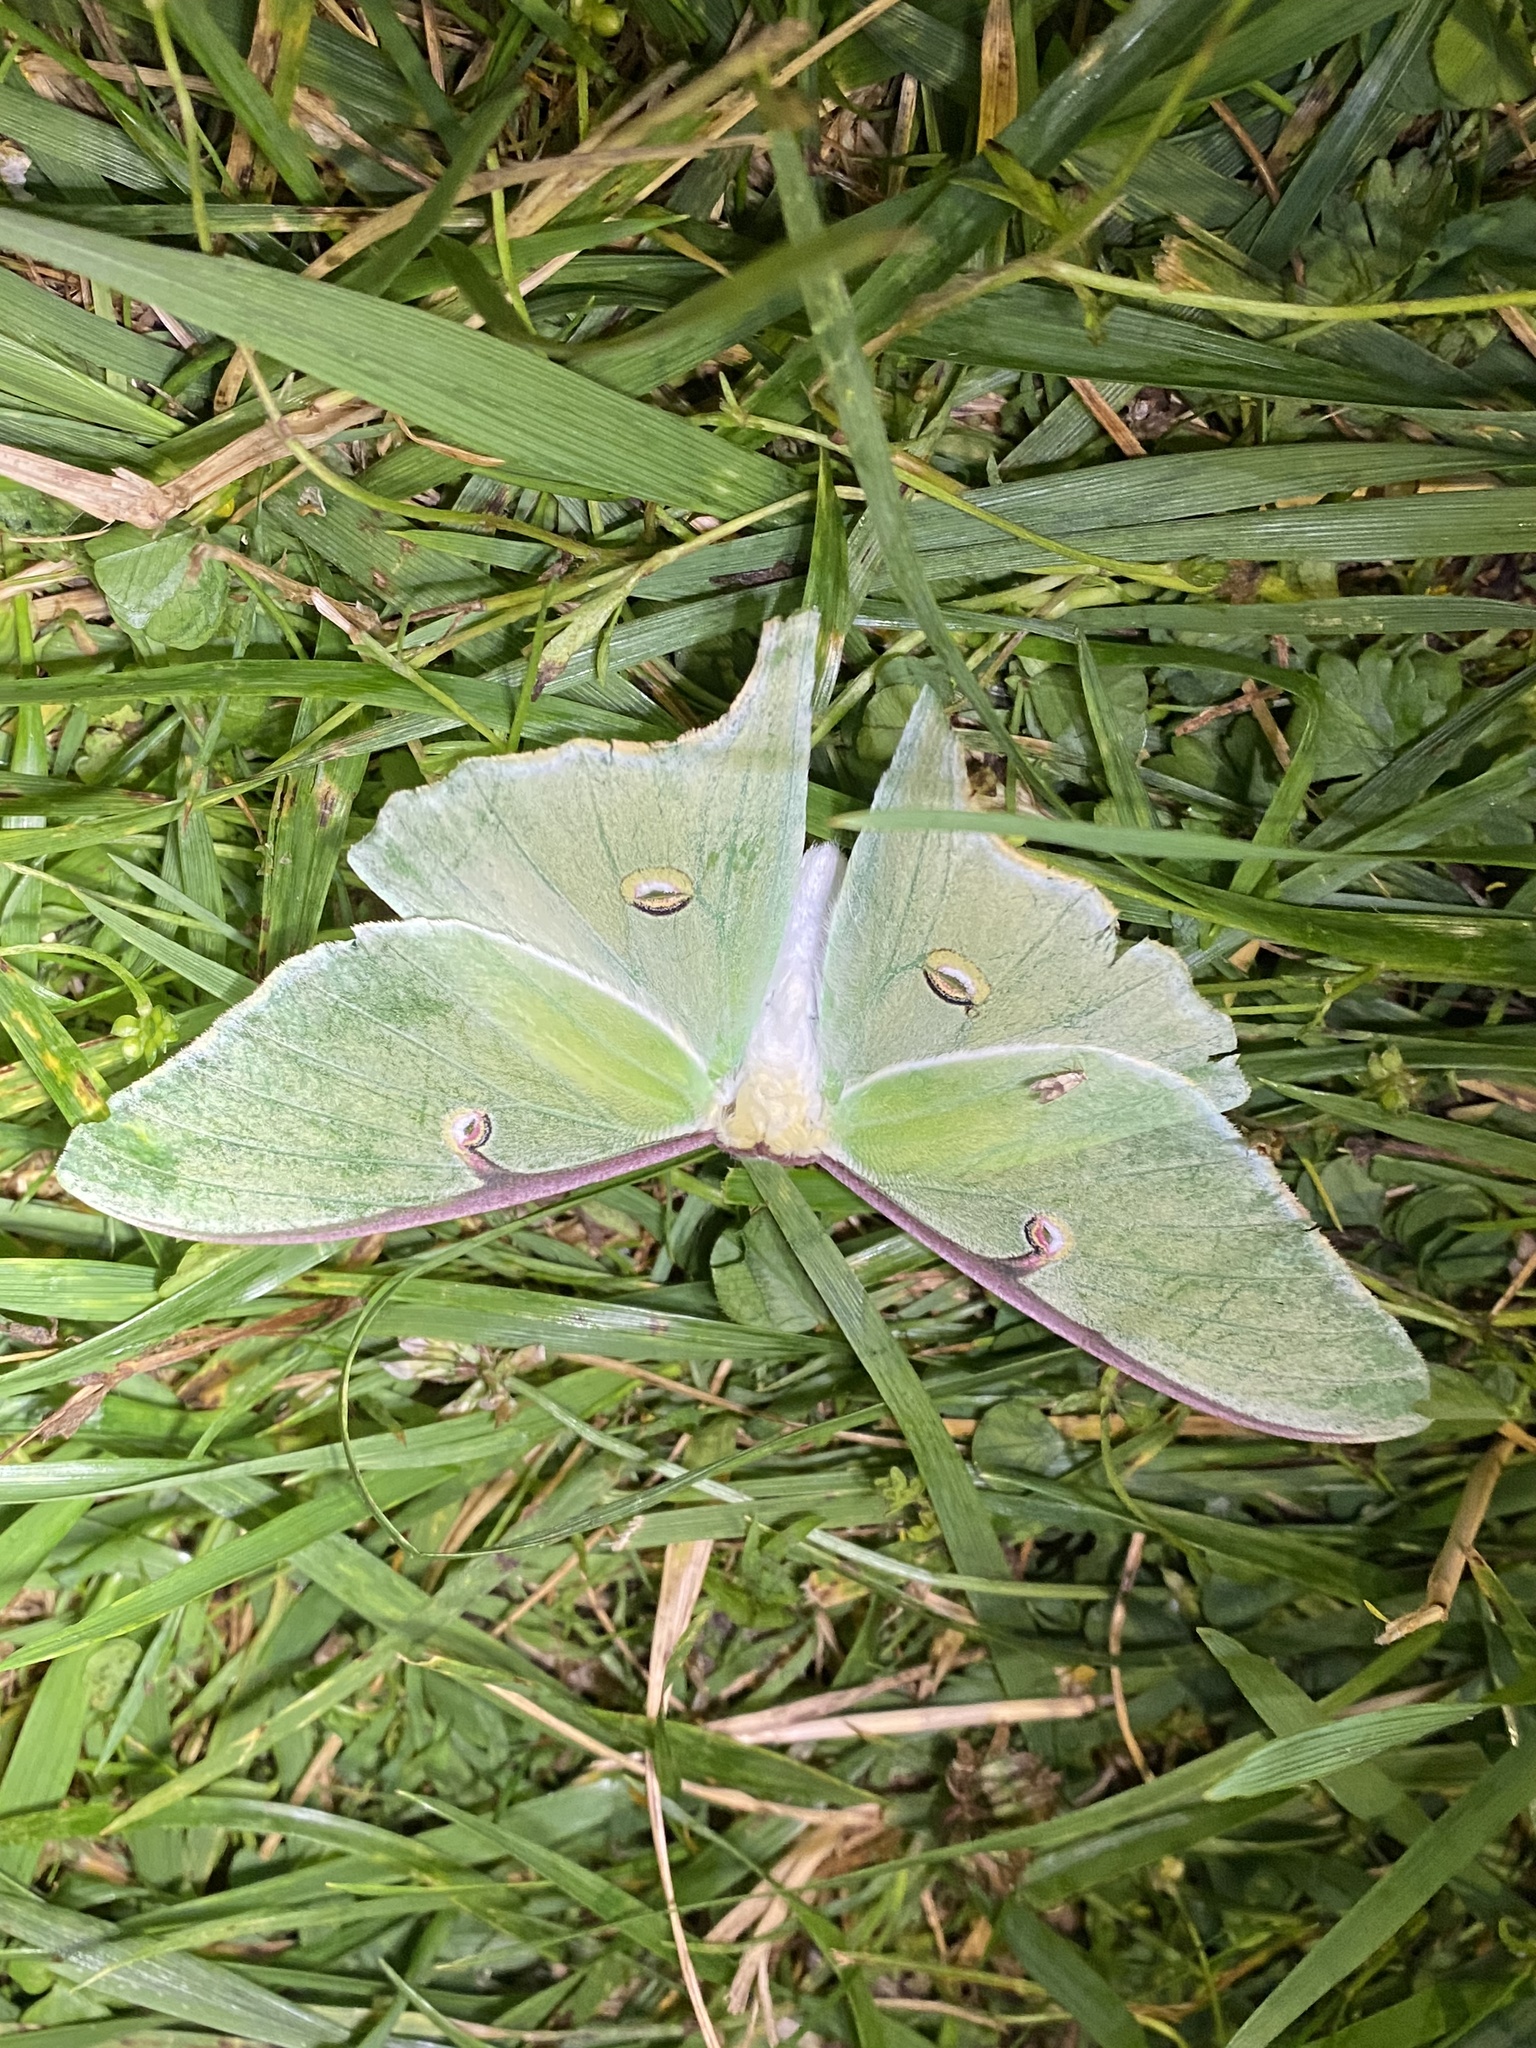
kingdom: Animalia
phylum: Arthropoda
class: Insecta
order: Lepidoptera
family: Saturniidae
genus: Actias
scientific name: Actias luna
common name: Luna moth
